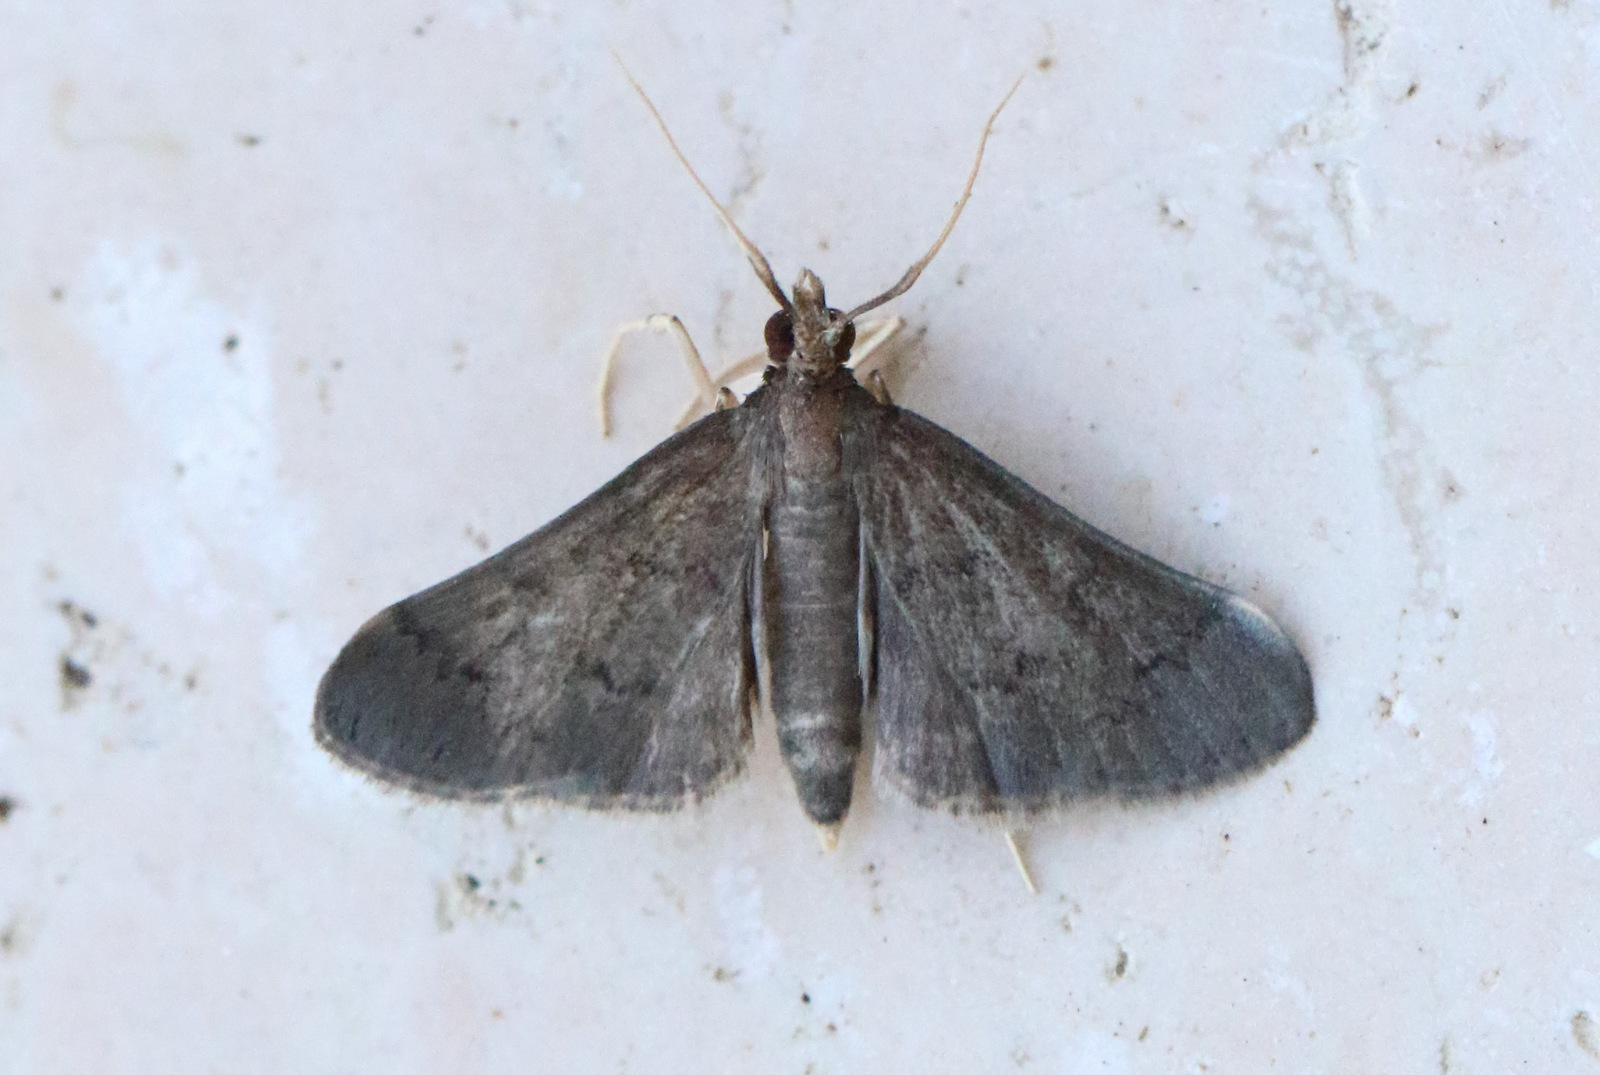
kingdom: Animalia
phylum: Arthropoda
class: Insecta
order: Lepidoptera
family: Crambidae
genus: Piletocera
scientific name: Piletocera macroperalis
